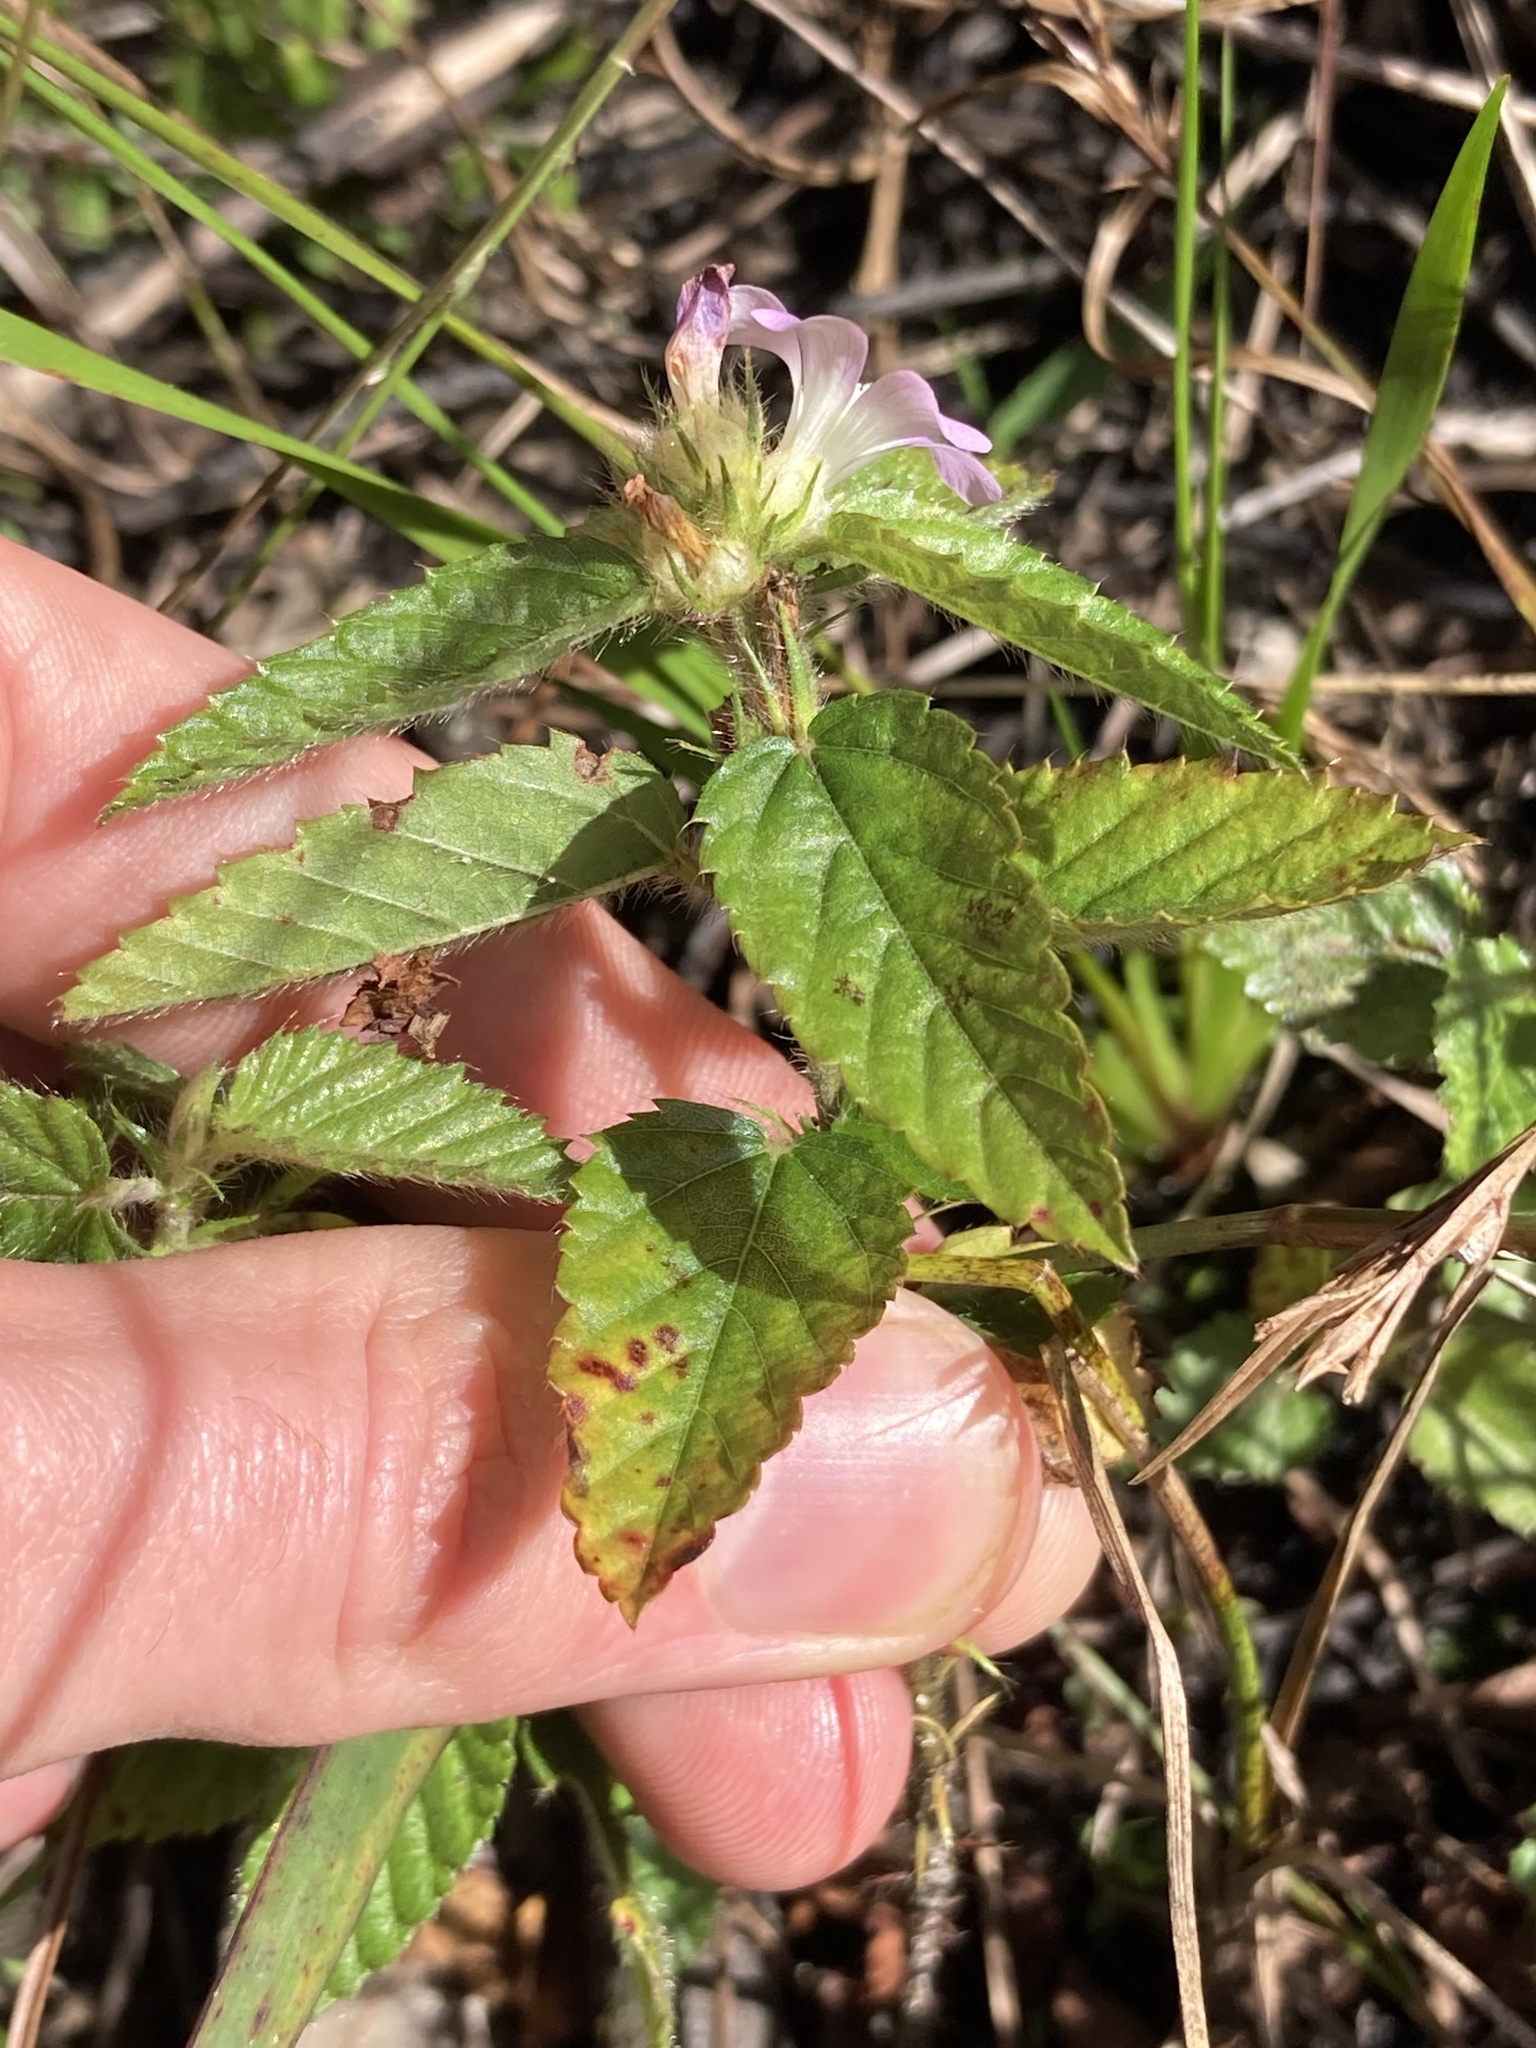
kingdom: Plantae
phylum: Tracheophyta
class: Magnoliopsida
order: Malvales
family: Malvaceae
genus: Melochia
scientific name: Melochia spicata
